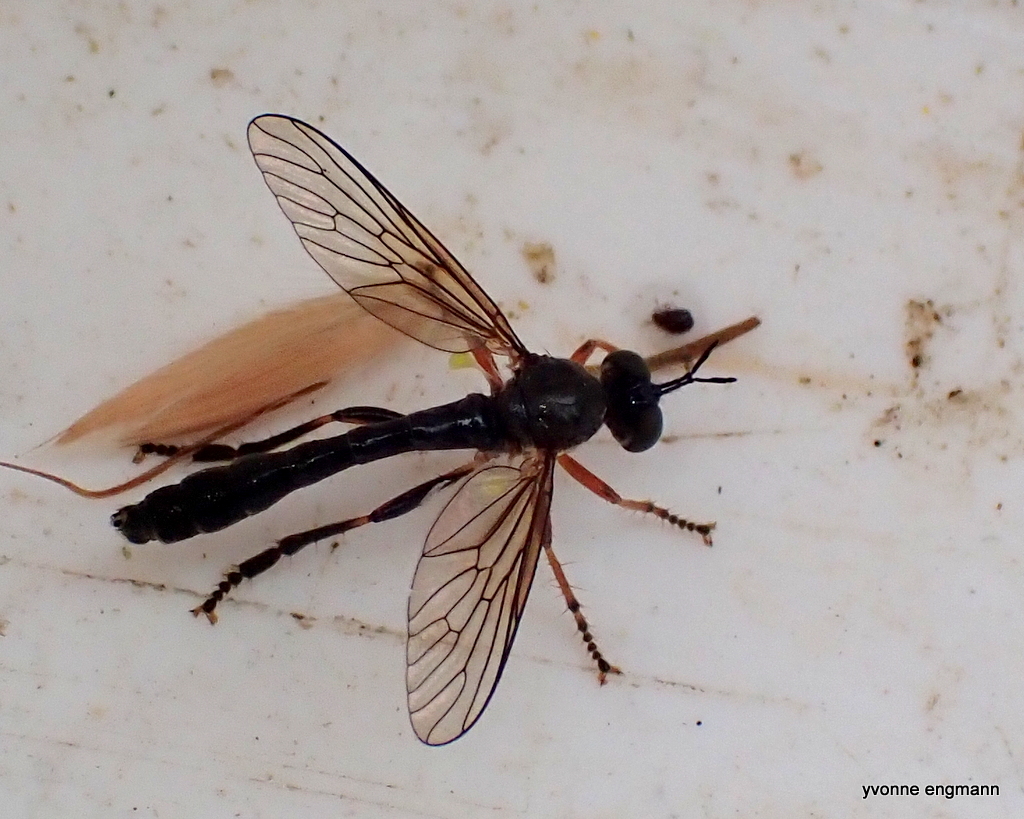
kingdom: Animalia
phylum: Arthropoda
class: Insecta
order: Diptera
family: Asilidae
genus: Dioctria
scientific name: Dioctria hyalipennis
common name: Stripe-legged robberfly
